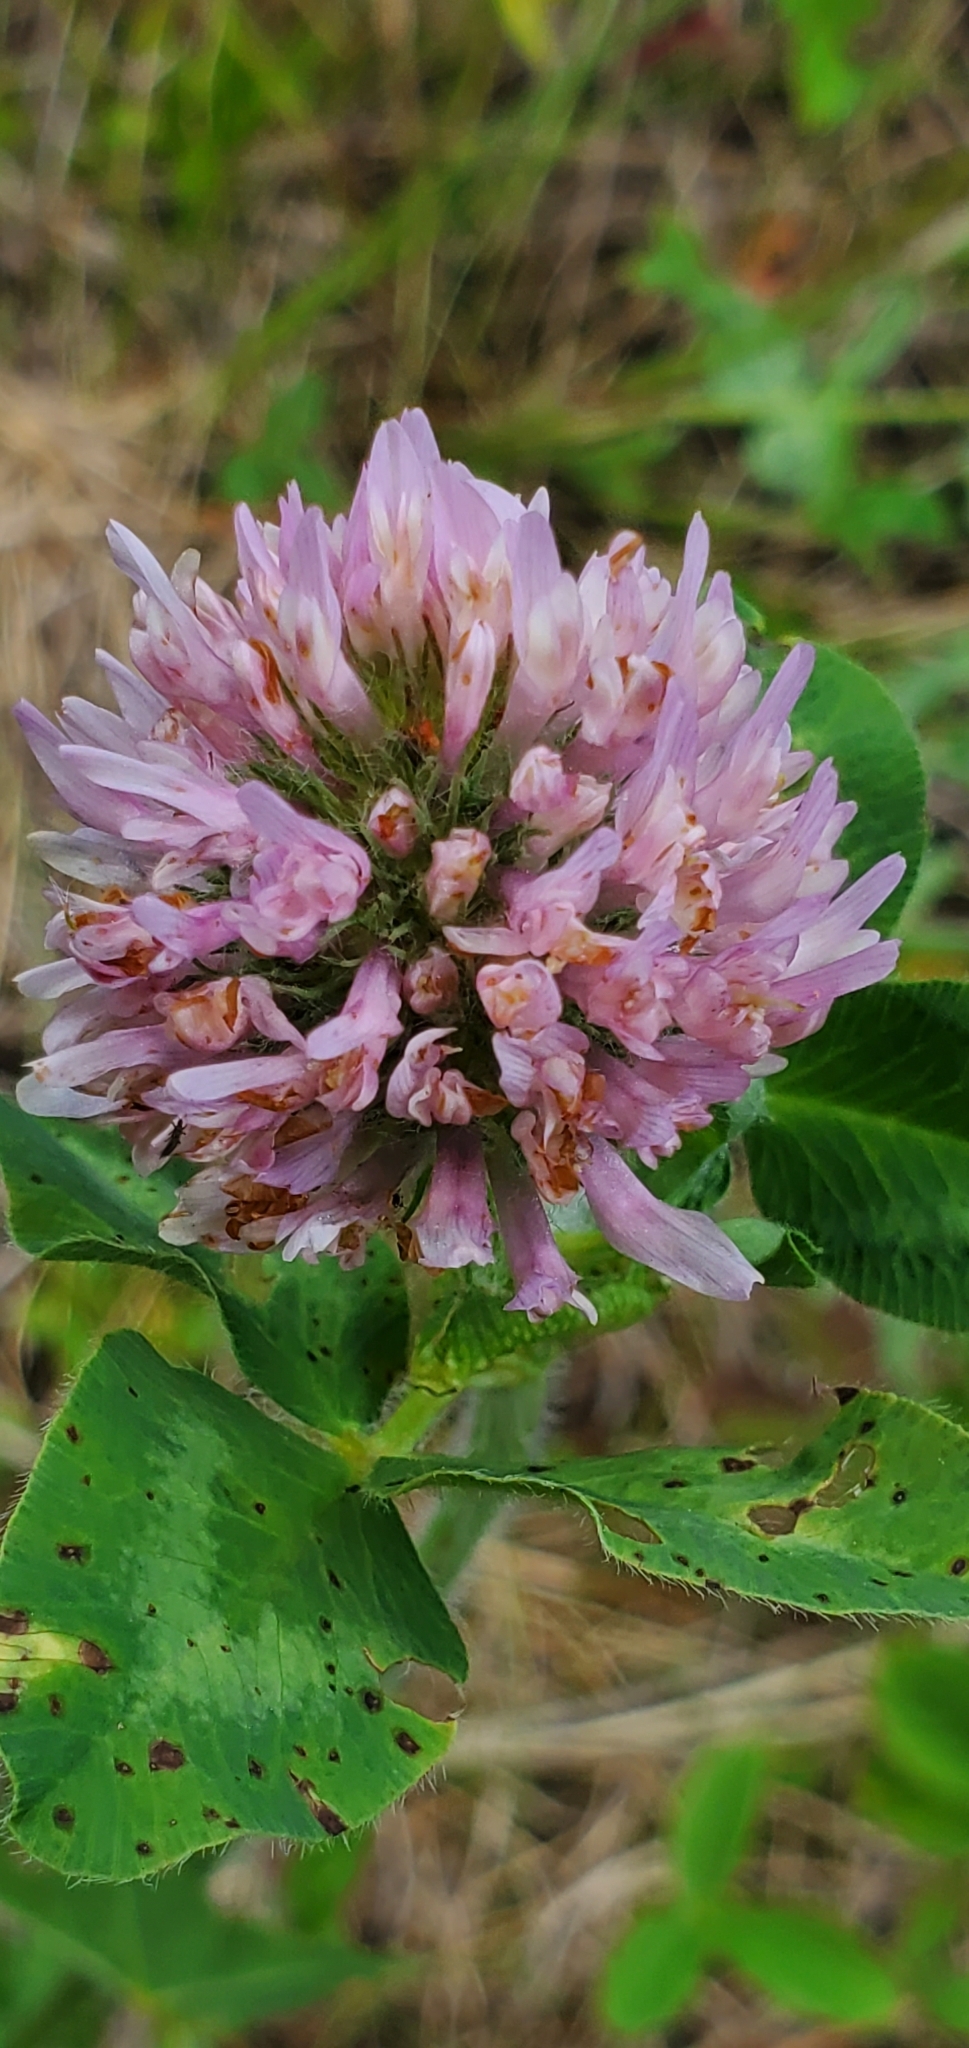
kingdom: Plantae
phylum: Tracheophyta
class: Magnoliopsida
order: Fabales
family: Fabaceae
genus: Trifolium
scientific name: Trifolium pratense
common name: Red clover
